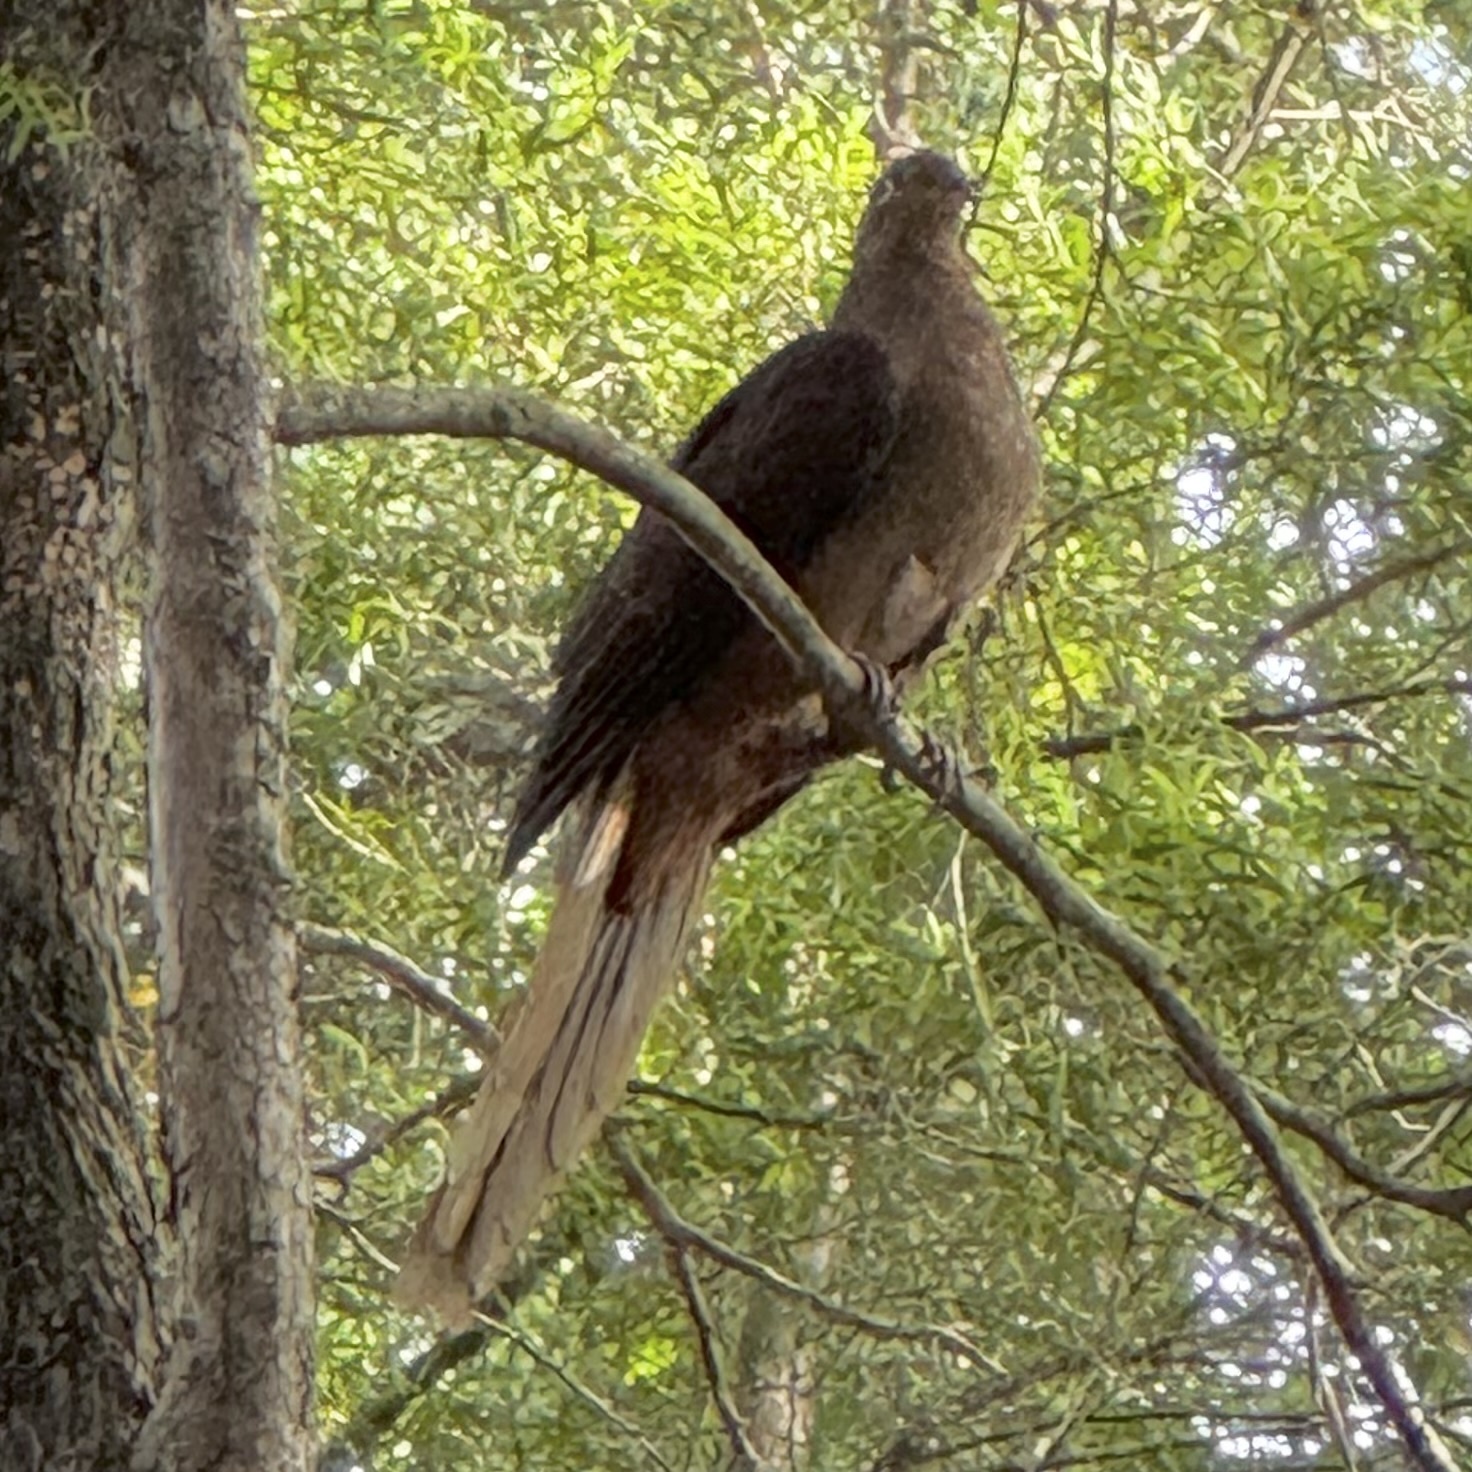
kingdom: Animalia
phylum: Chordata
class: Aves
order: Columbiformes
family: Columbidae
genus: Macropygia
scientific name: Macropygia phasianella
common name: Brown cuckoo-dove
